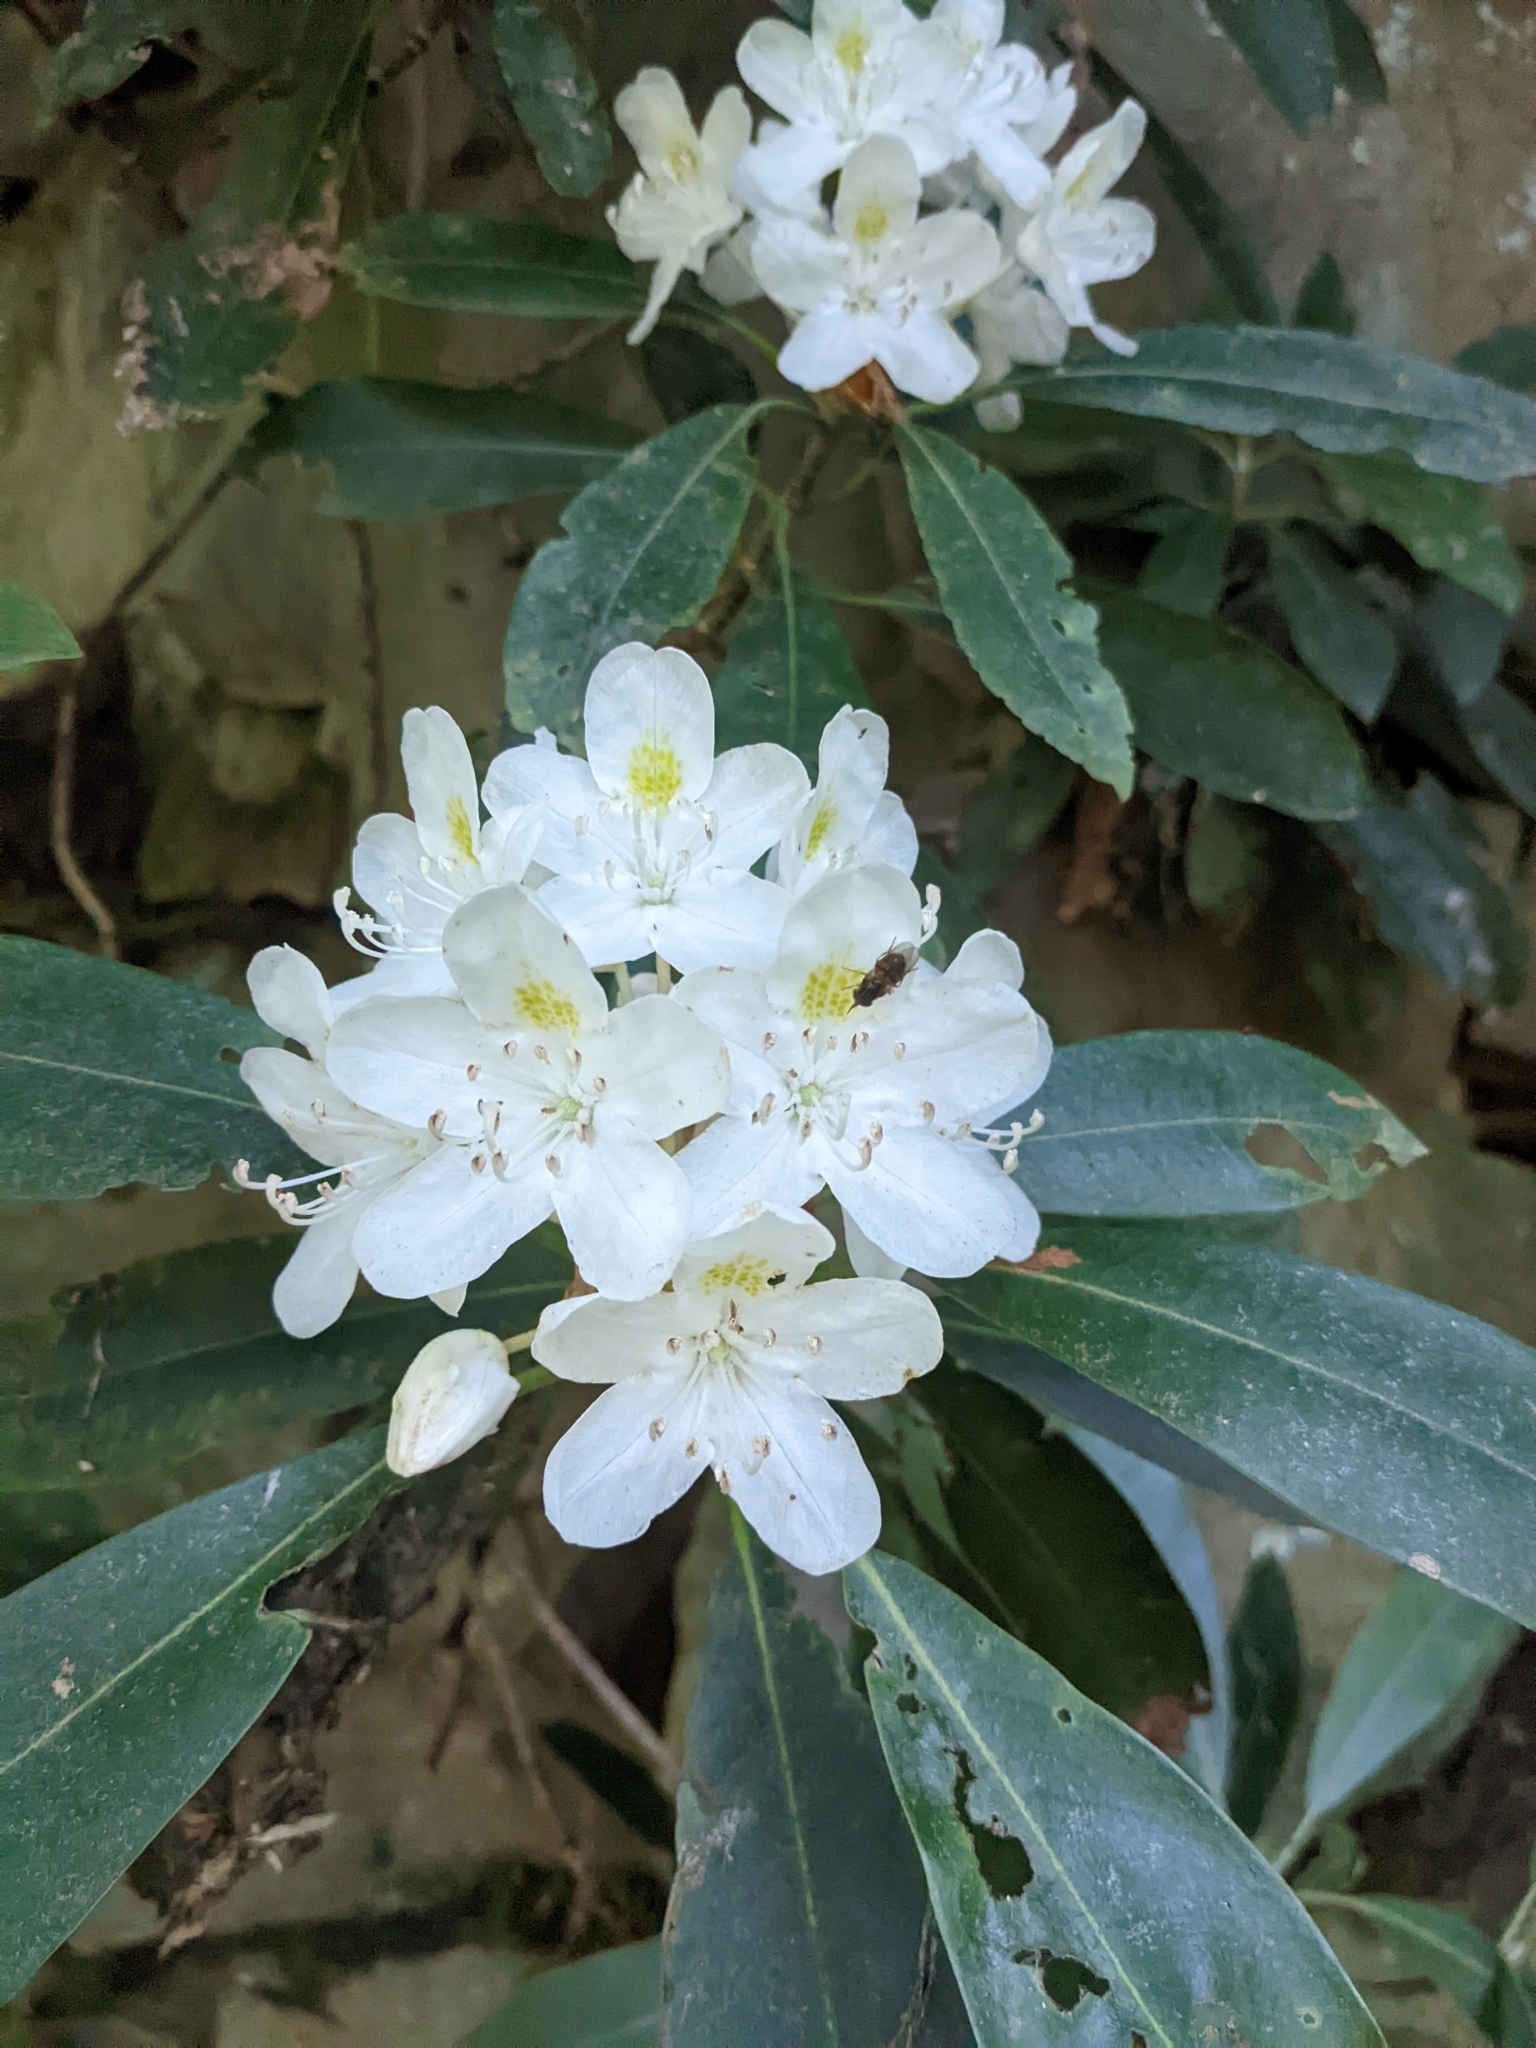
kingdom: Plantae
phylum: Tracheophyta
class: Magnoliopsida
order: Ericales
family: Ericaceae
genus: Rhododendron
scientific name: Rhododendron maximum
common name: Great rhododendron
